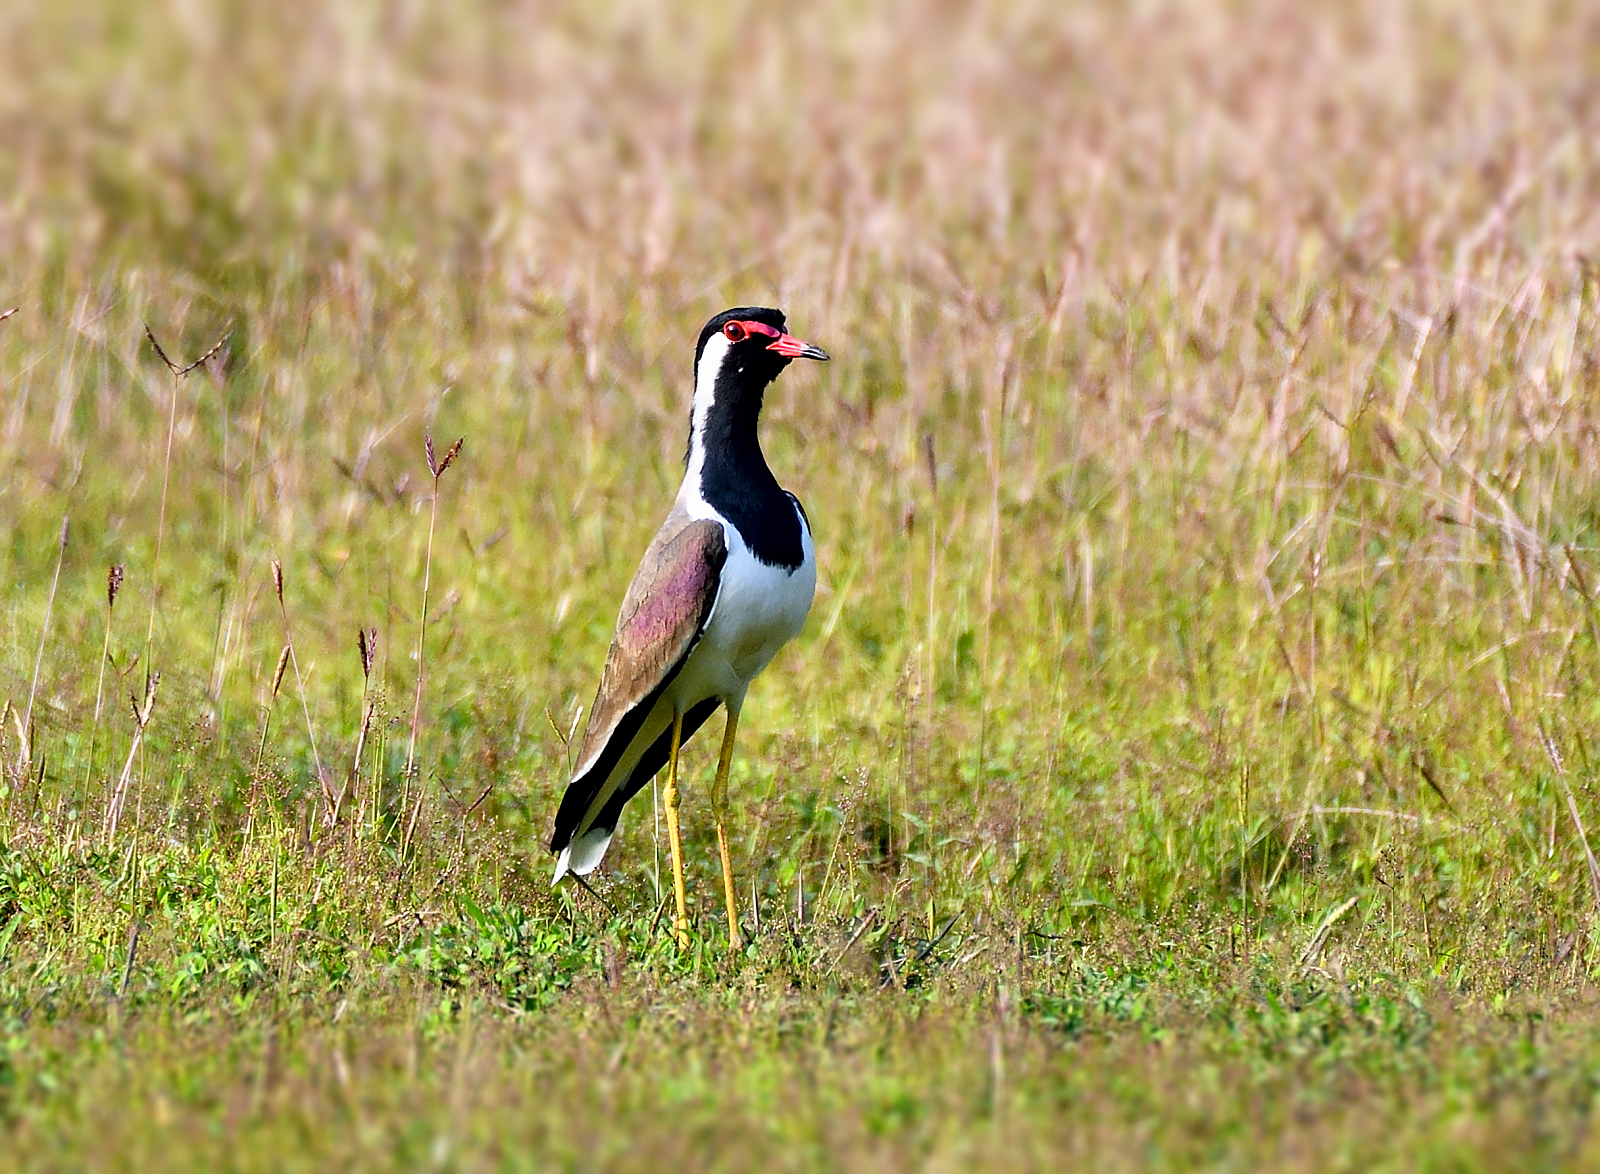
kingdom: Animalia
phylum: Chordata
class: Aves
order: Charadriiformes
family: Charadriidae
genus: Vanellus
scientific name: Vanellus indicus
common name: Red-wattled lapwing
